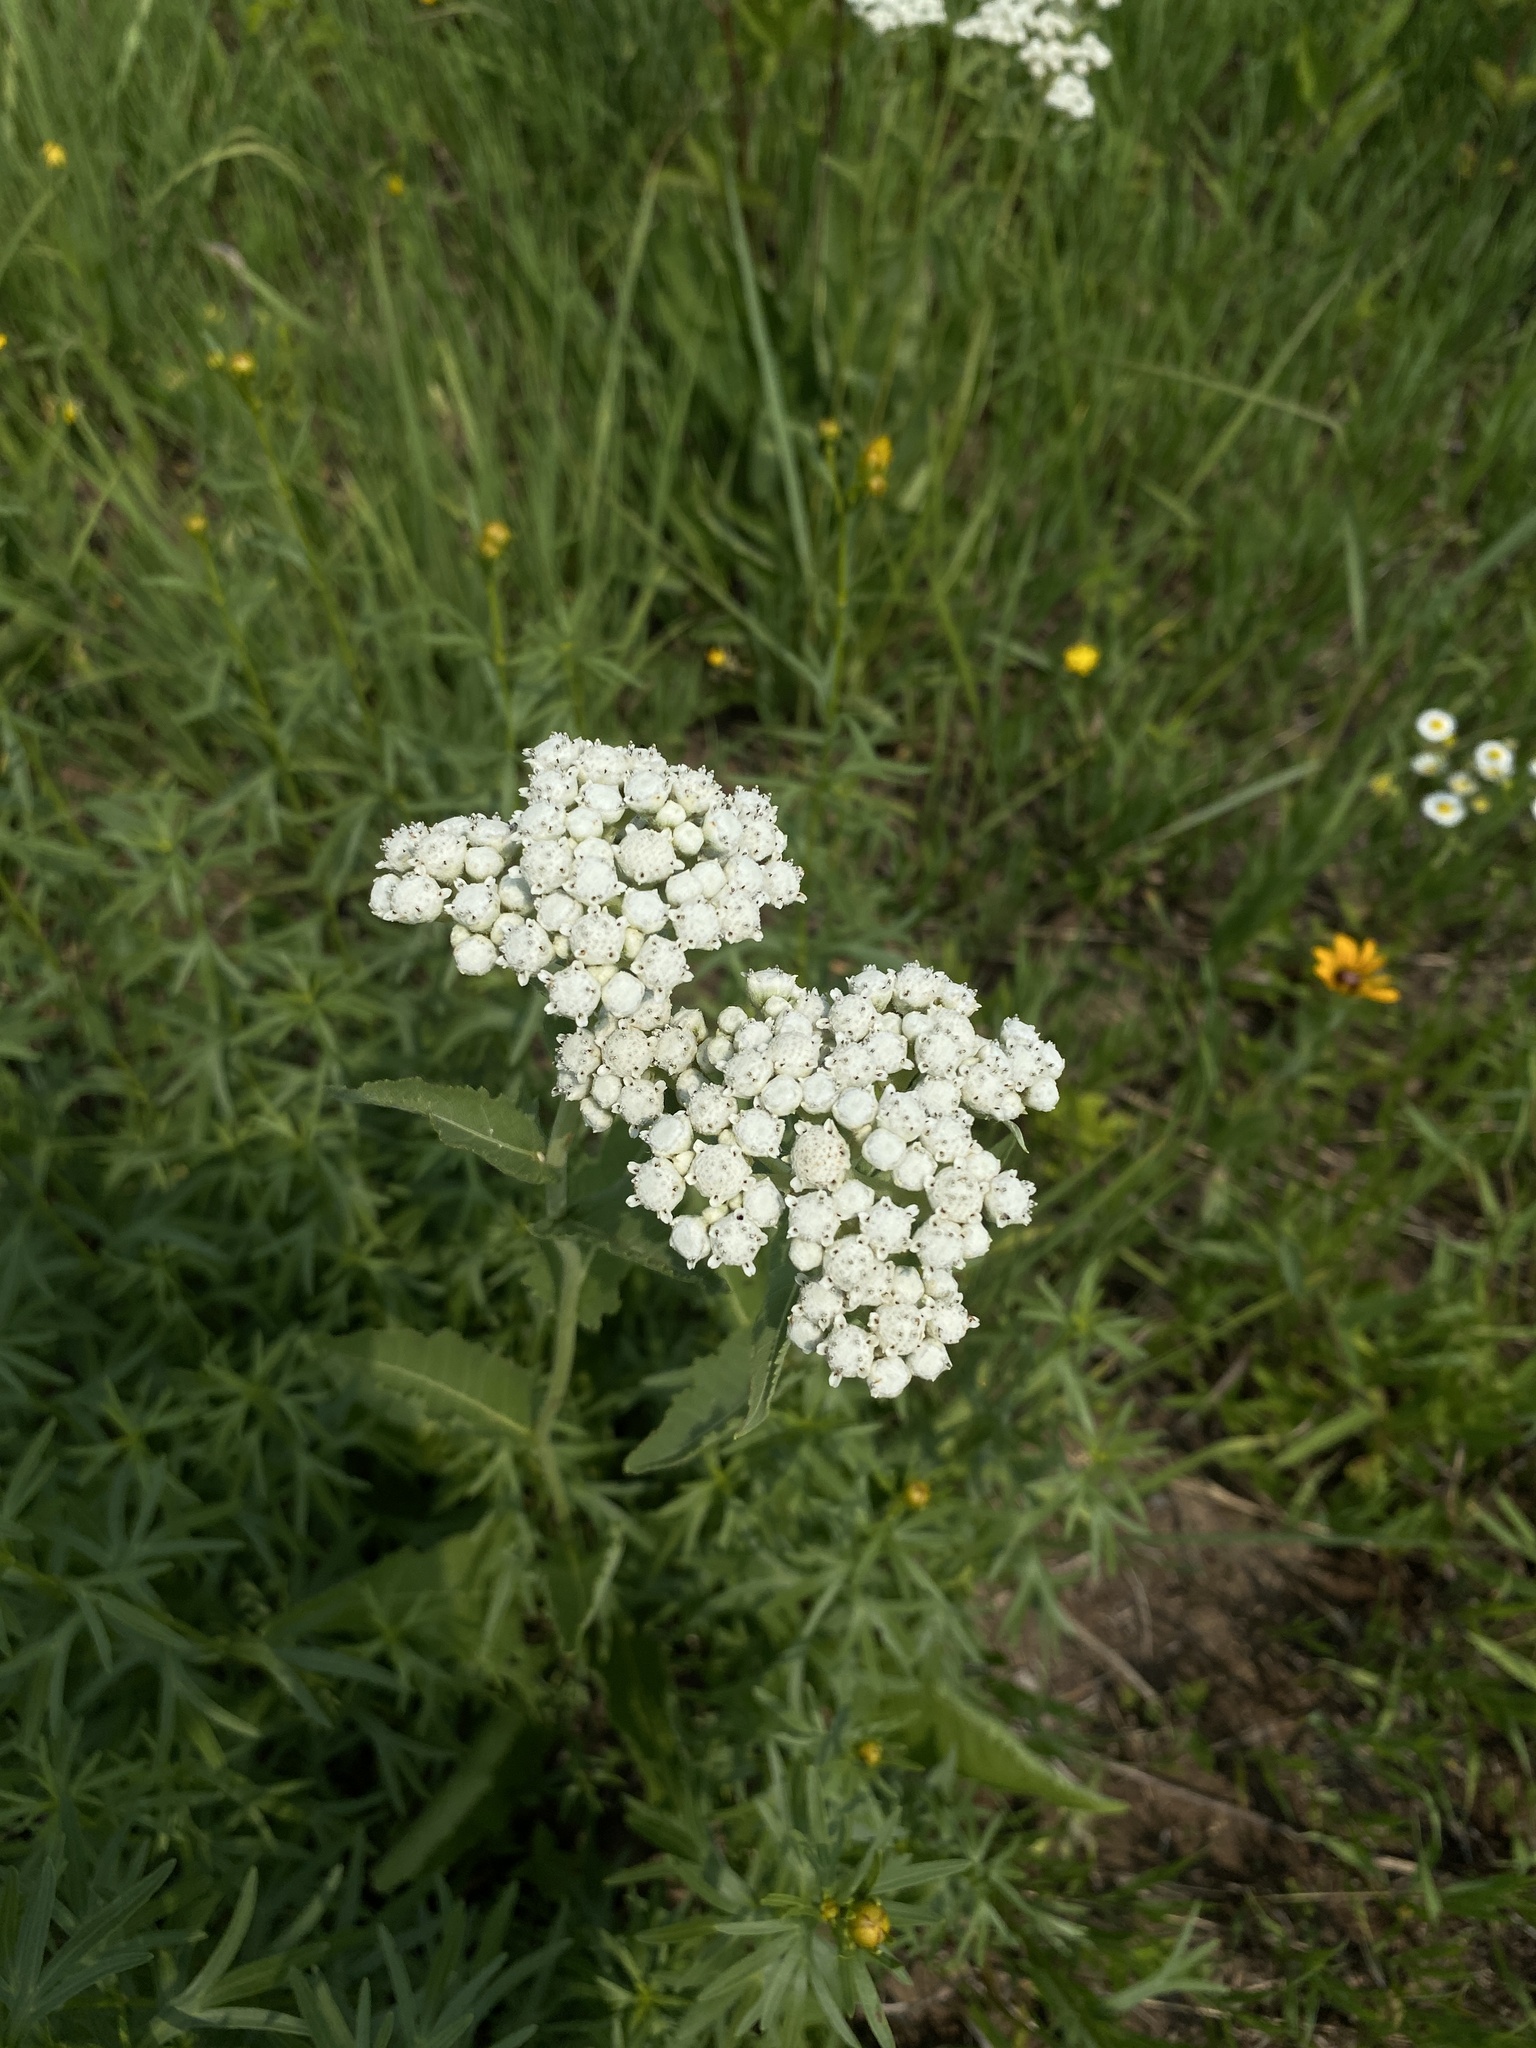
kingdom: Plantae
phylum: Tracheophyta
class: Magnoliopsida
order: Asterales
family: Asteraceae
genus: Parthenium
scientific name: Parthenium integrifolium
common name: American feverfew
